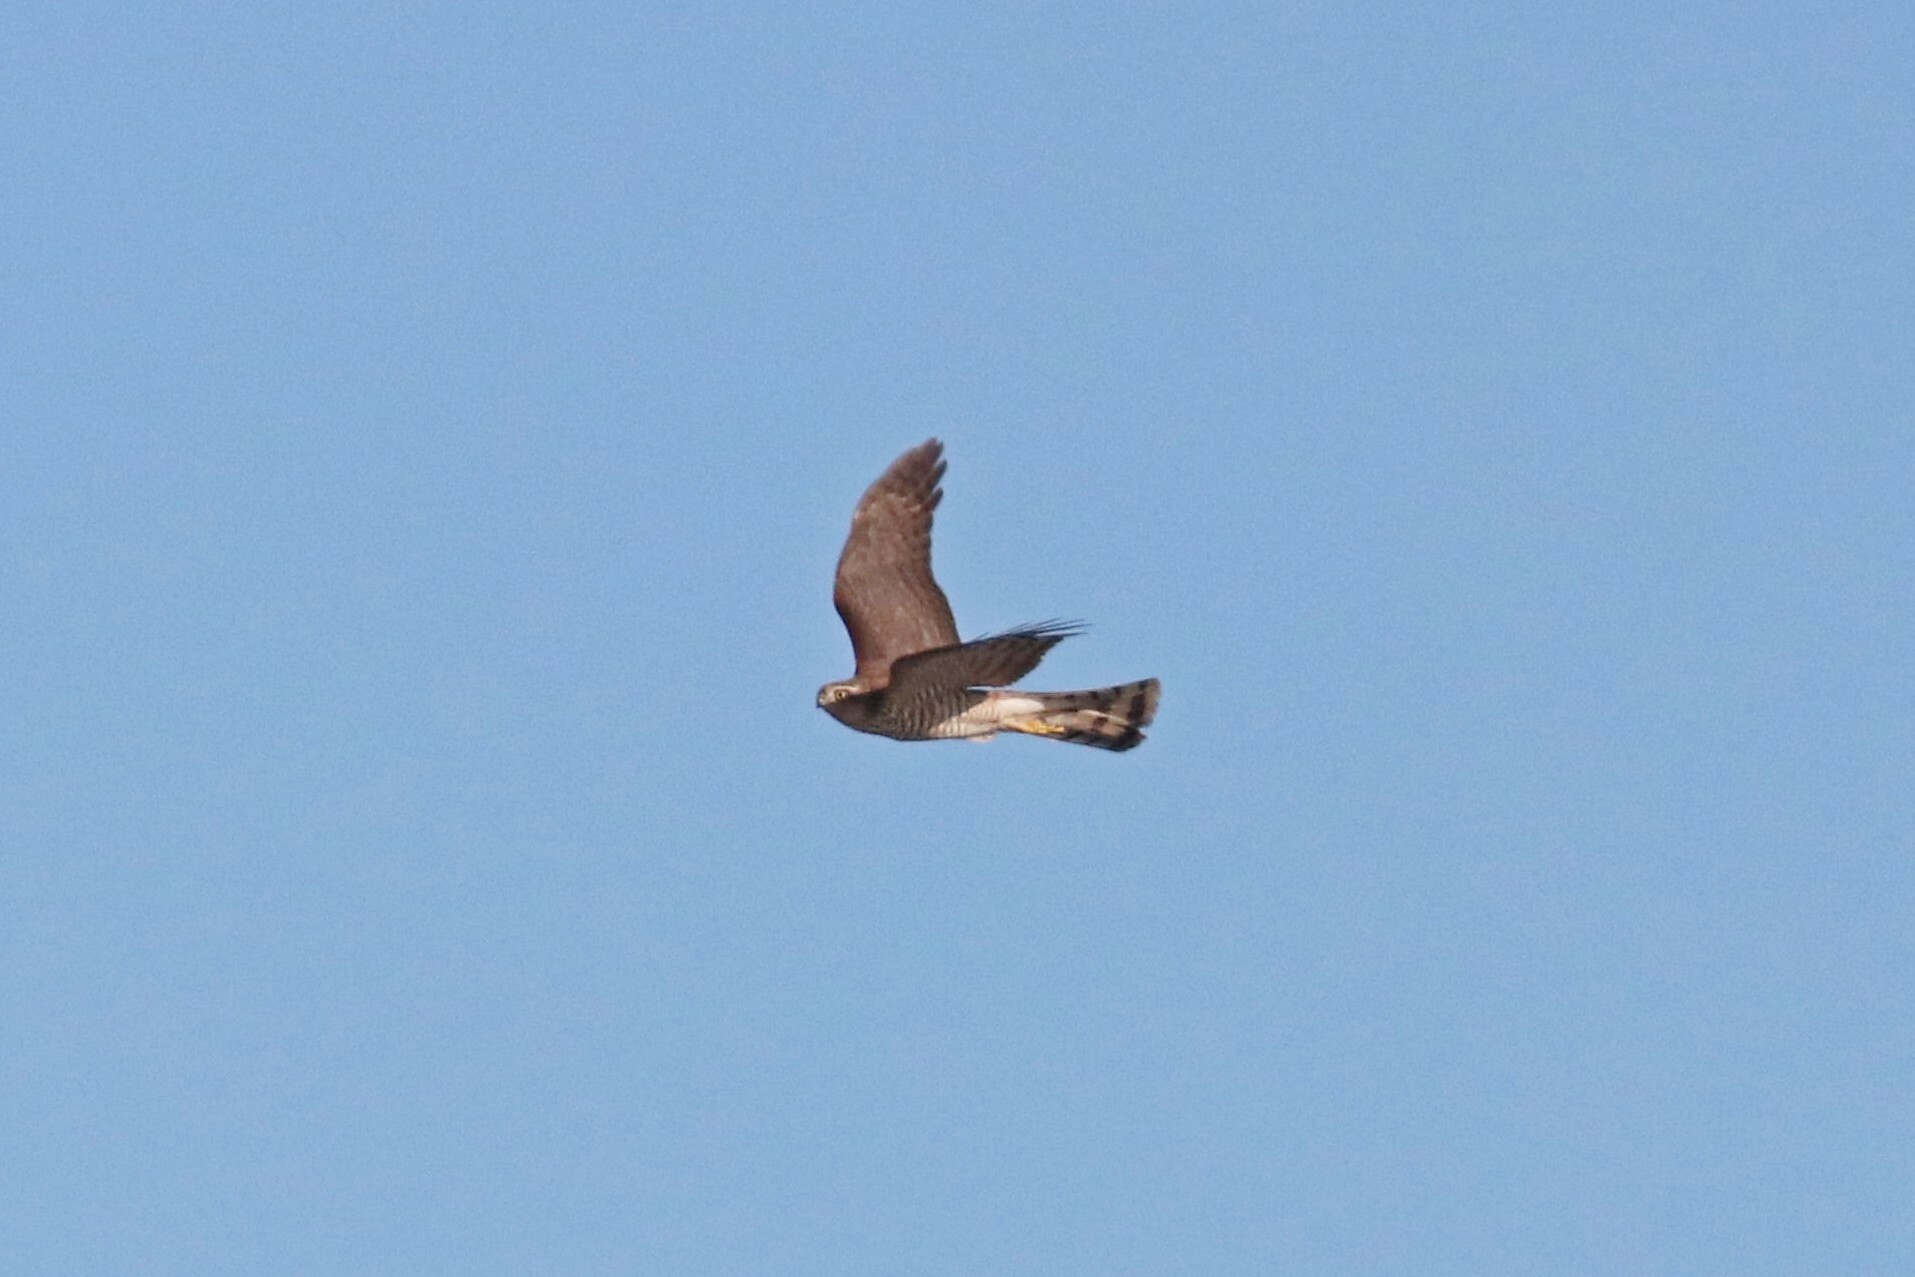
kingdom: Animalia
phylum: Chordata
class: Aves
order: Accipitriformes
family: Accipitridae
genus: Accipiter
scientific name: Accipiter nisus
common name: Eurasian sparrowhawk
